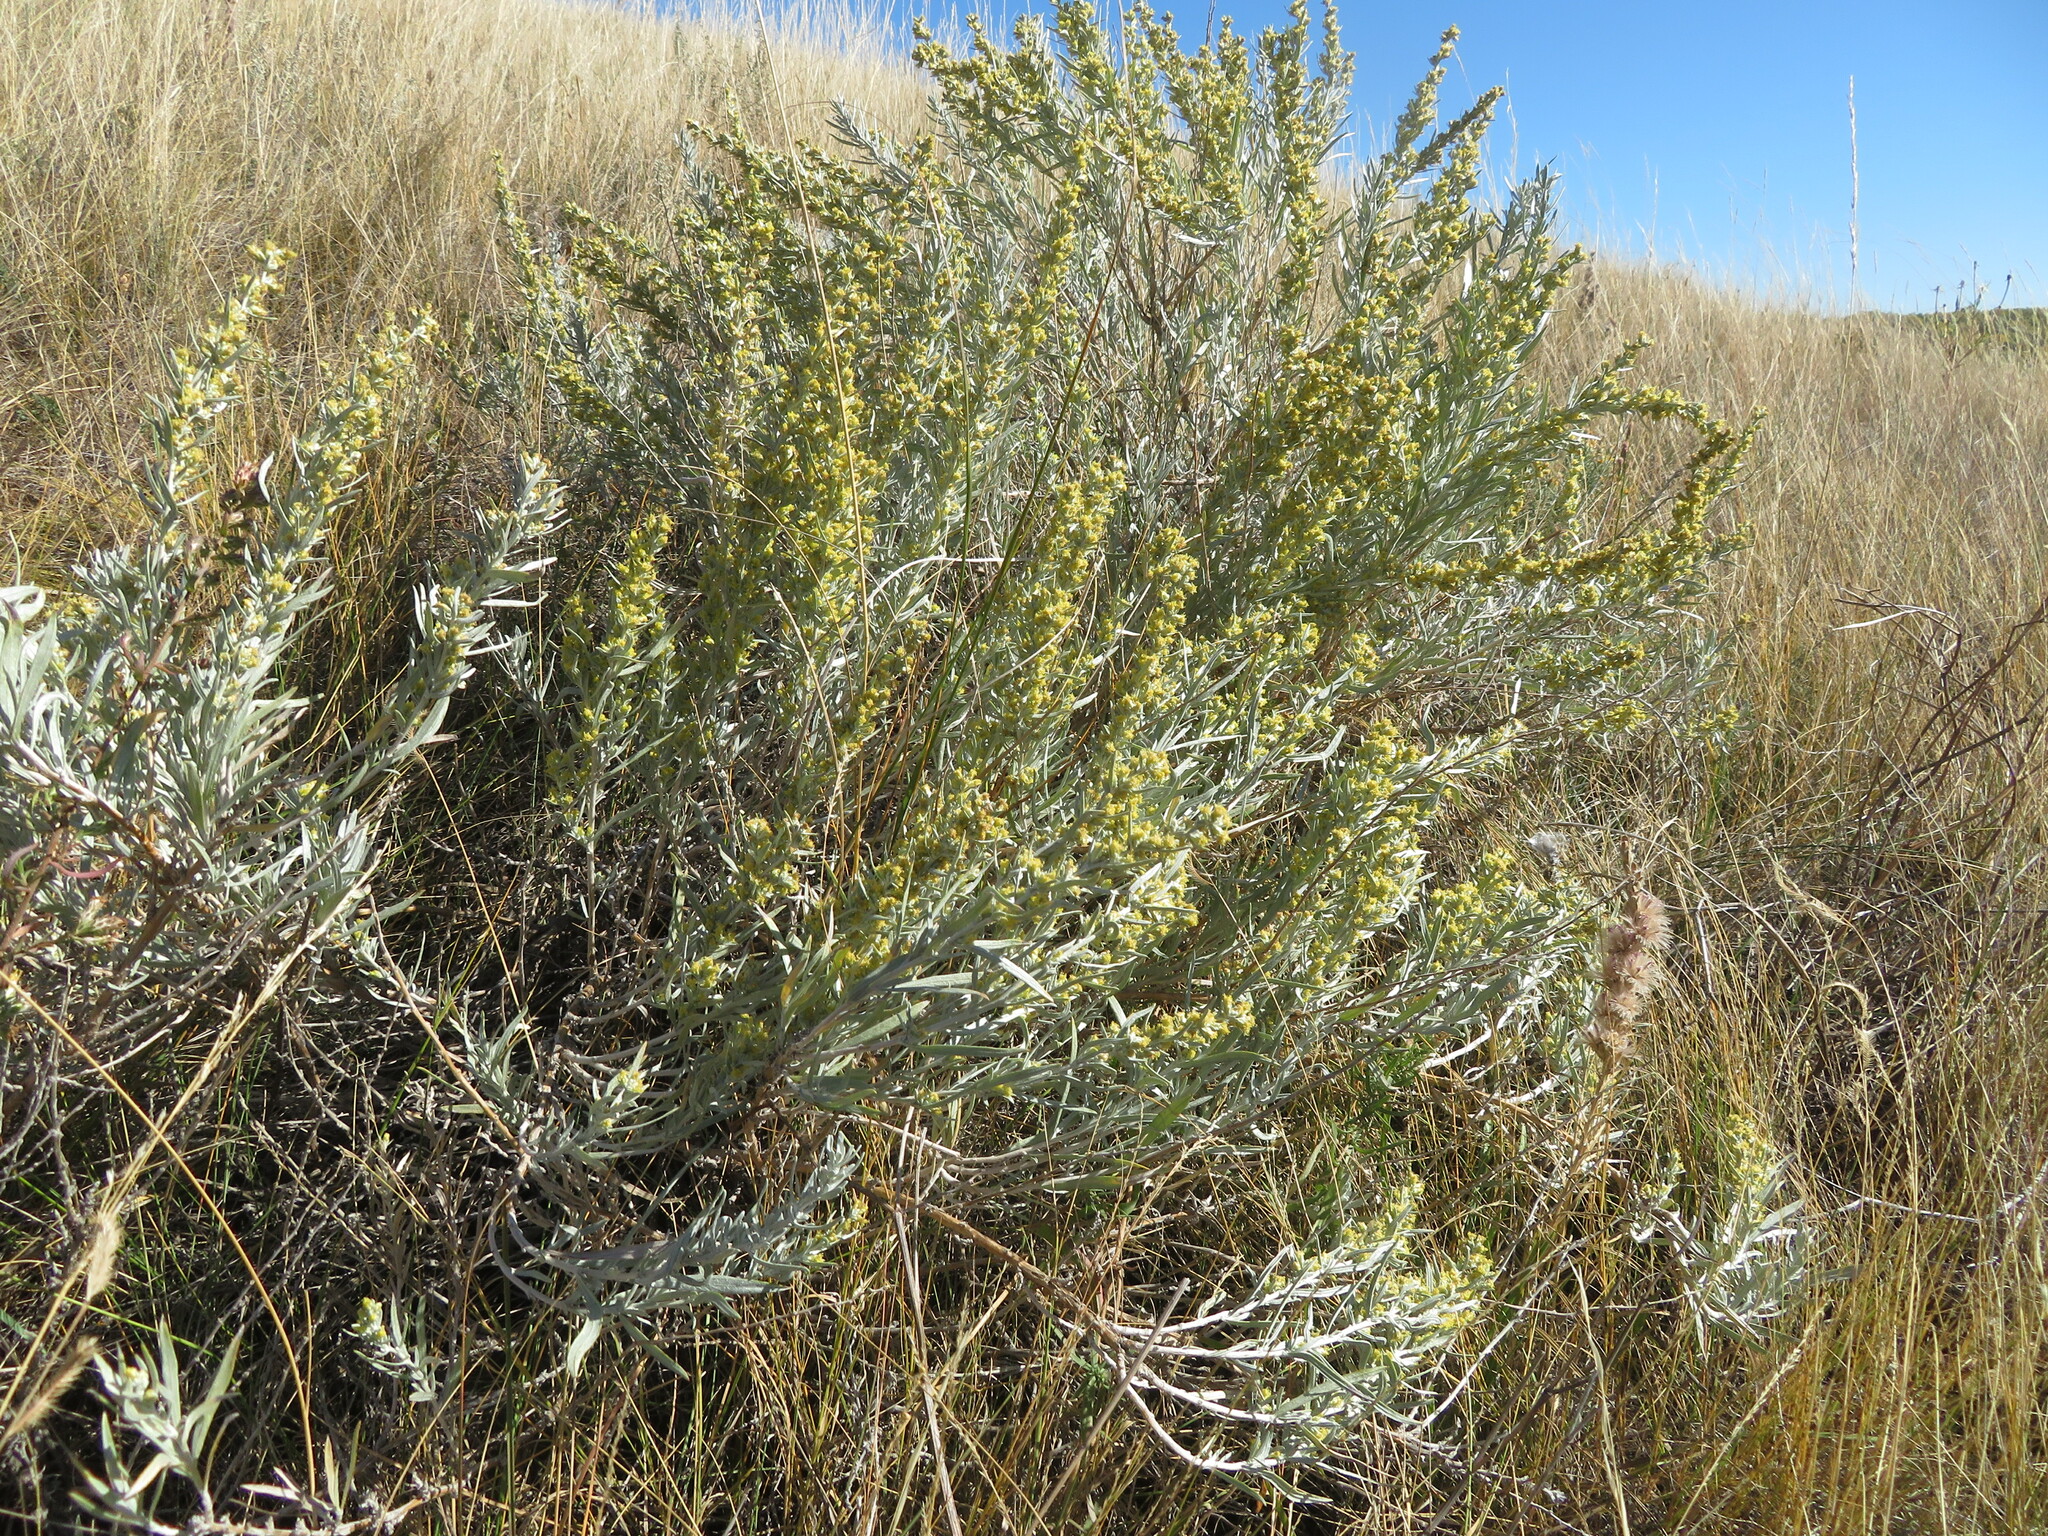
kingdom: Plantae
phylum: Tracheophyta
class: Magnoliopsida
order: Asterales
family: Asteraceae
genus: Artemisia
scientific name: Artemisia cana
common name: Silver sagebrush
